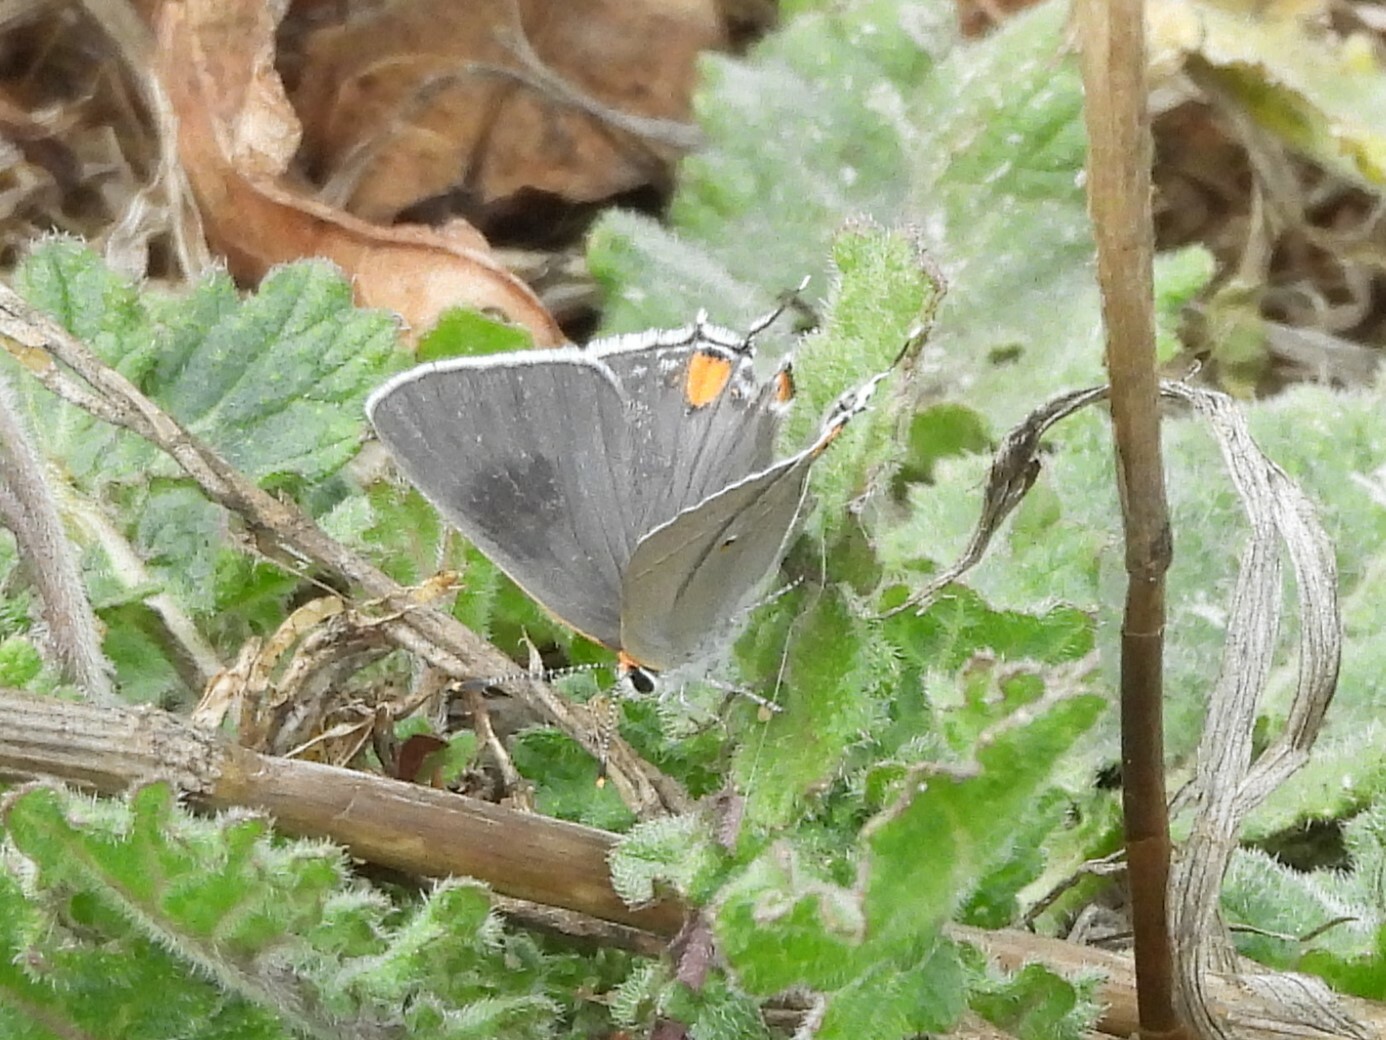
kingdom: Animalia
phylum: Arthropoda
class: Insecta
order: Lepidoptera
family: Lycaenidae
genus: Strymon
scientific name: Strymon melinus
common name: Gray hairstreak
